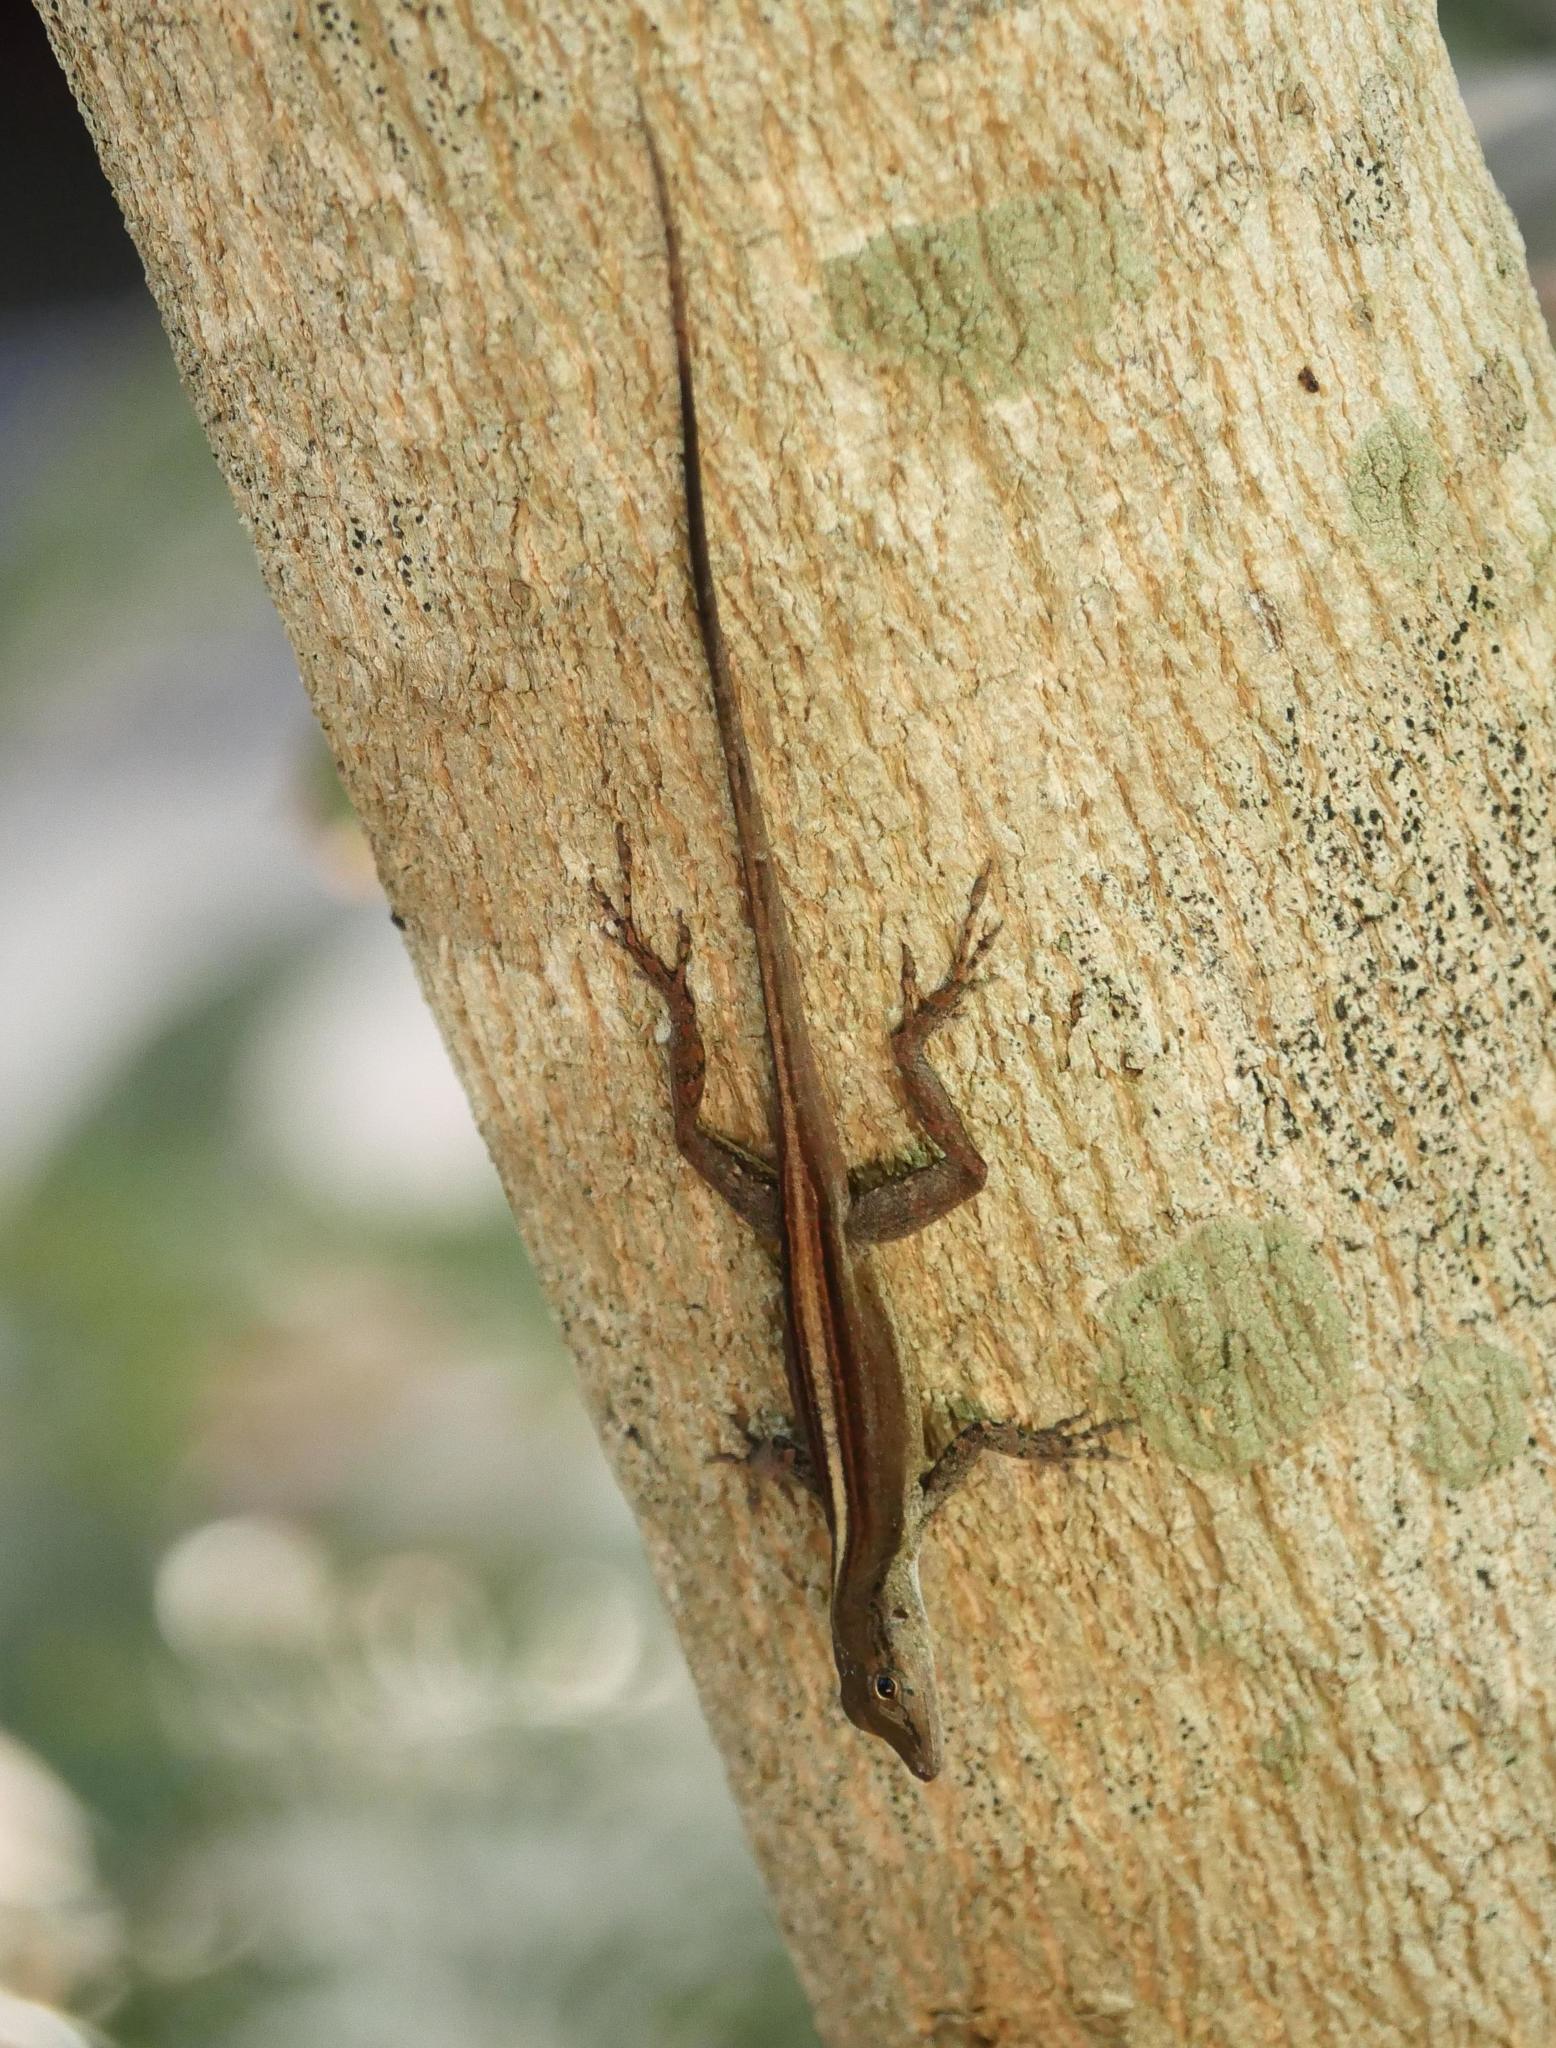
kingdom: Animalia
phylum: Chordata
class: Squamata
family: Dactyloidae
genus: Anolis
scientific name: Anolis scriptus
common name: Silver key anole
